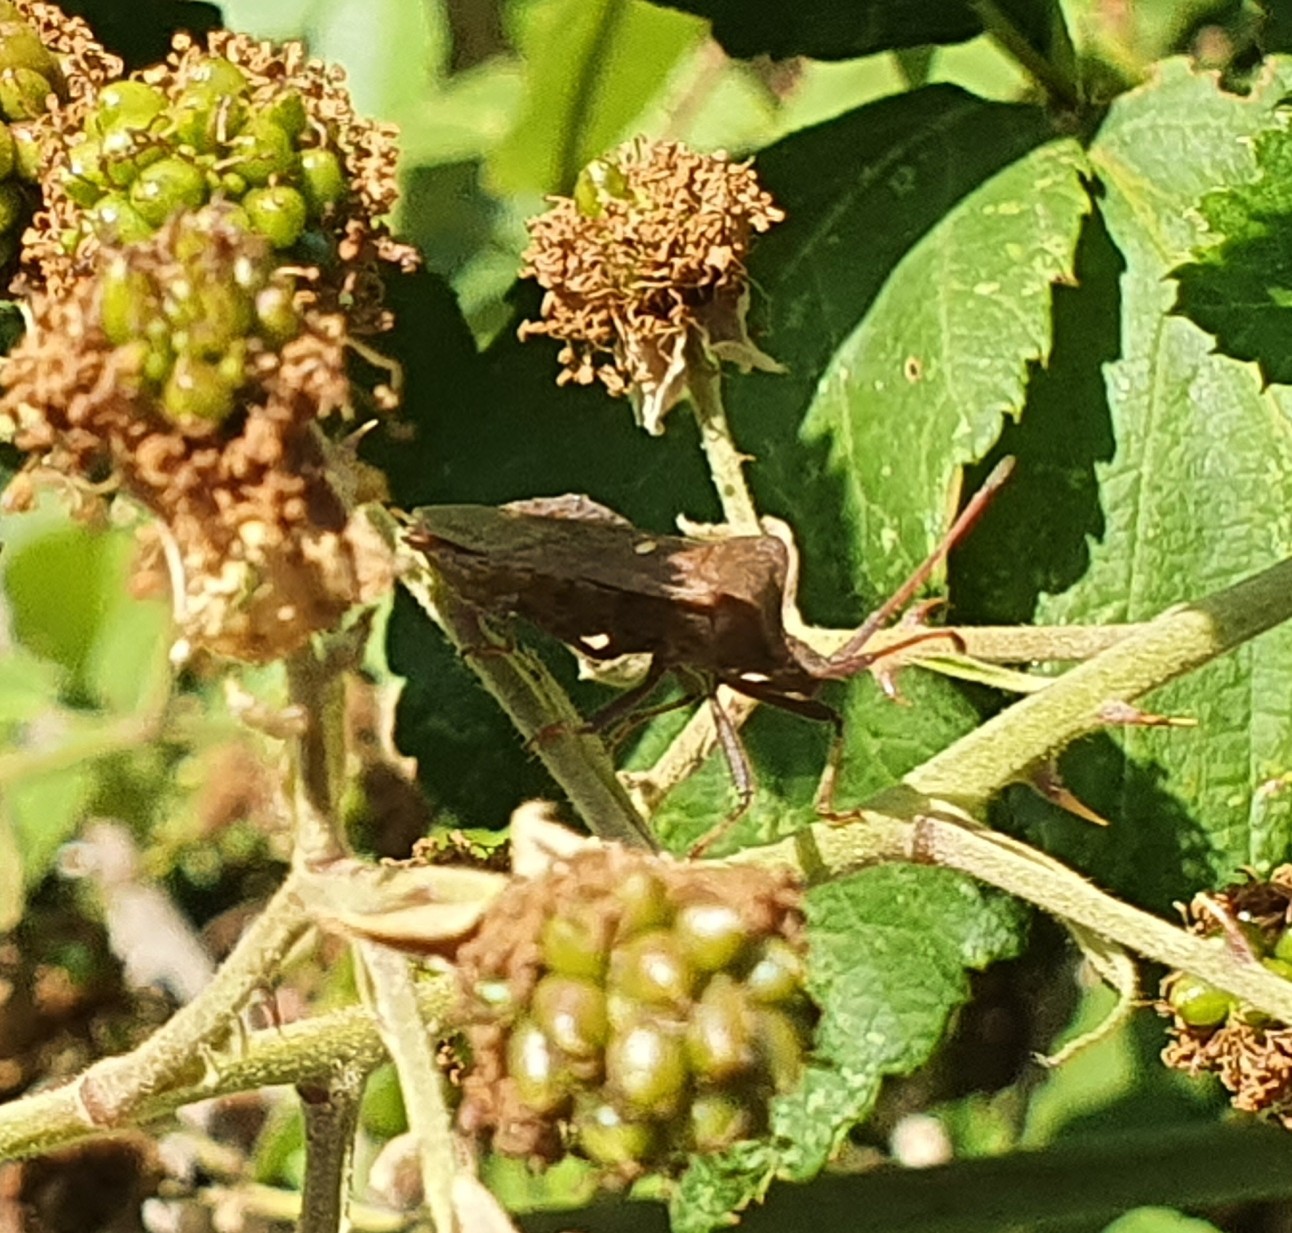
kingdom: Animalia
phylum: Arthropoda
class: Insecta
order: Hemiptera
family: Coreidae
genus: Coreus
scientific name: Coreus marginatus
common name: Dock bug
